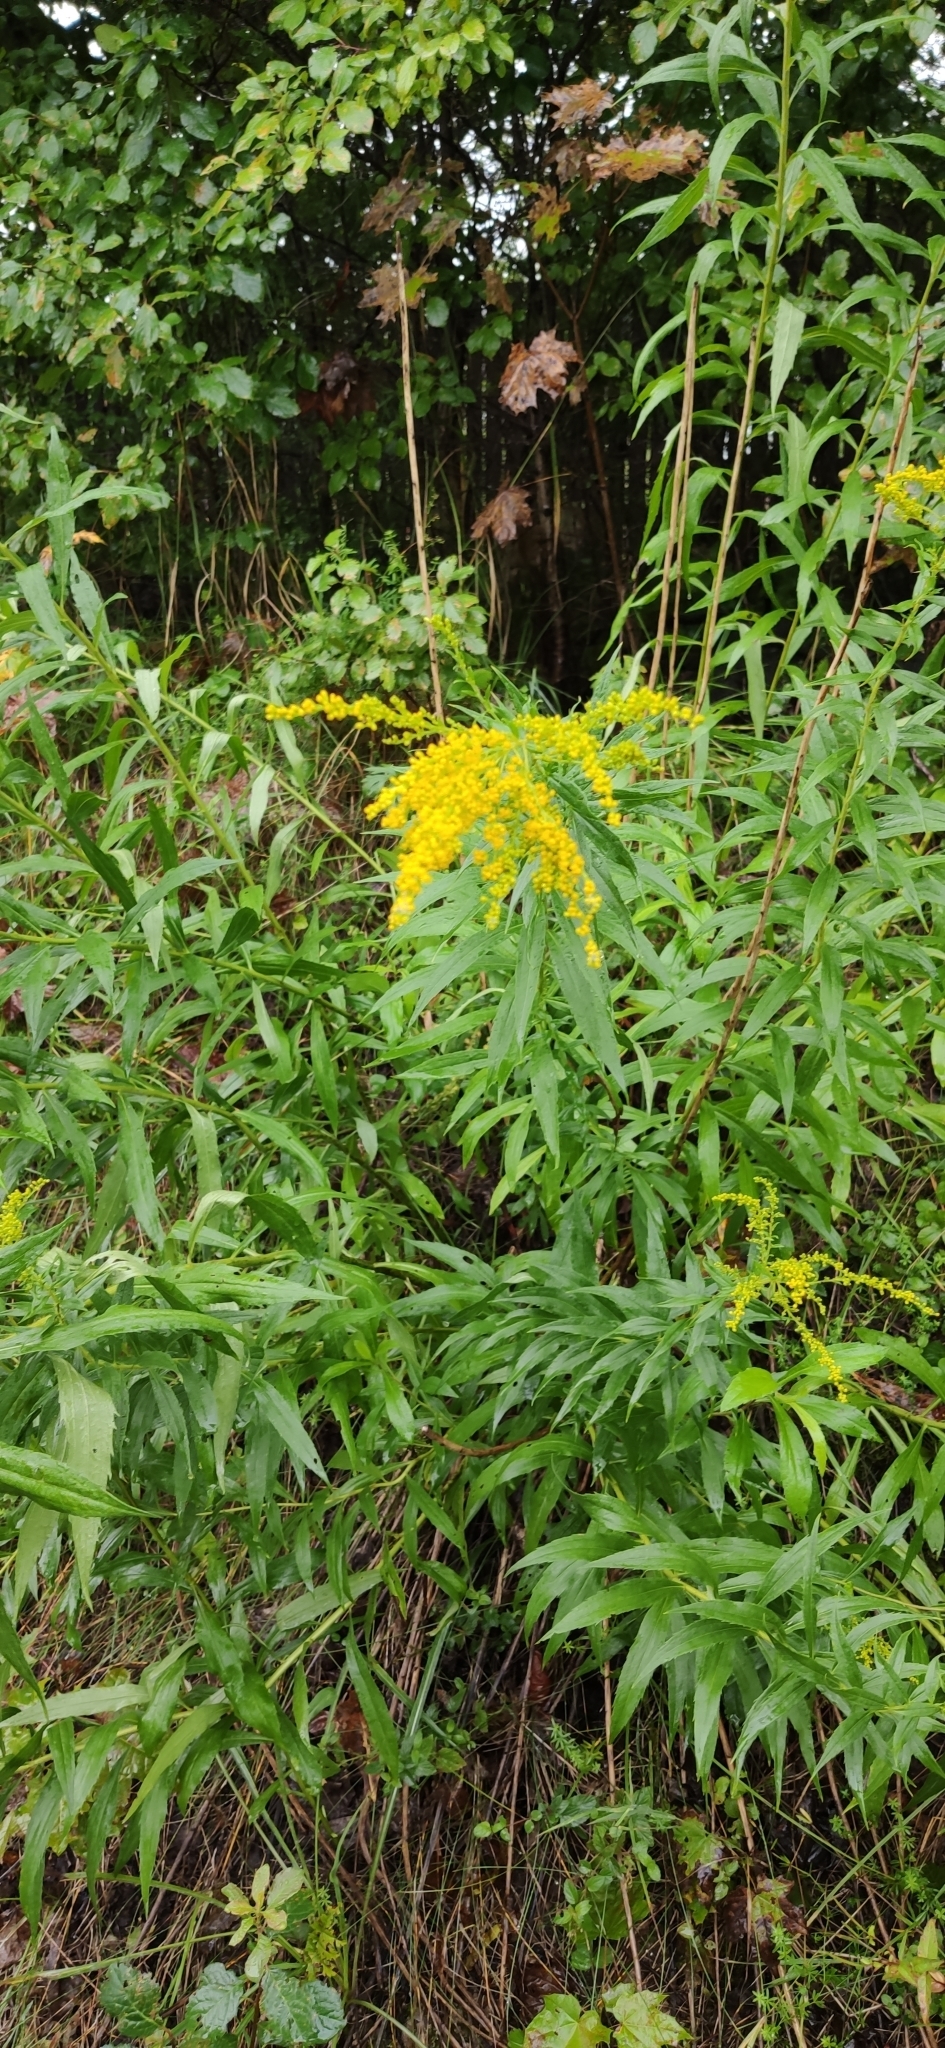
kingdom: Plantae
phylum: Tracheophyta
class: Magnoliopsida
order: Asterales
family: Asteraceae
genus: Solidago
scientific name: Solidago canadensis
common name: Canada goldenrod
